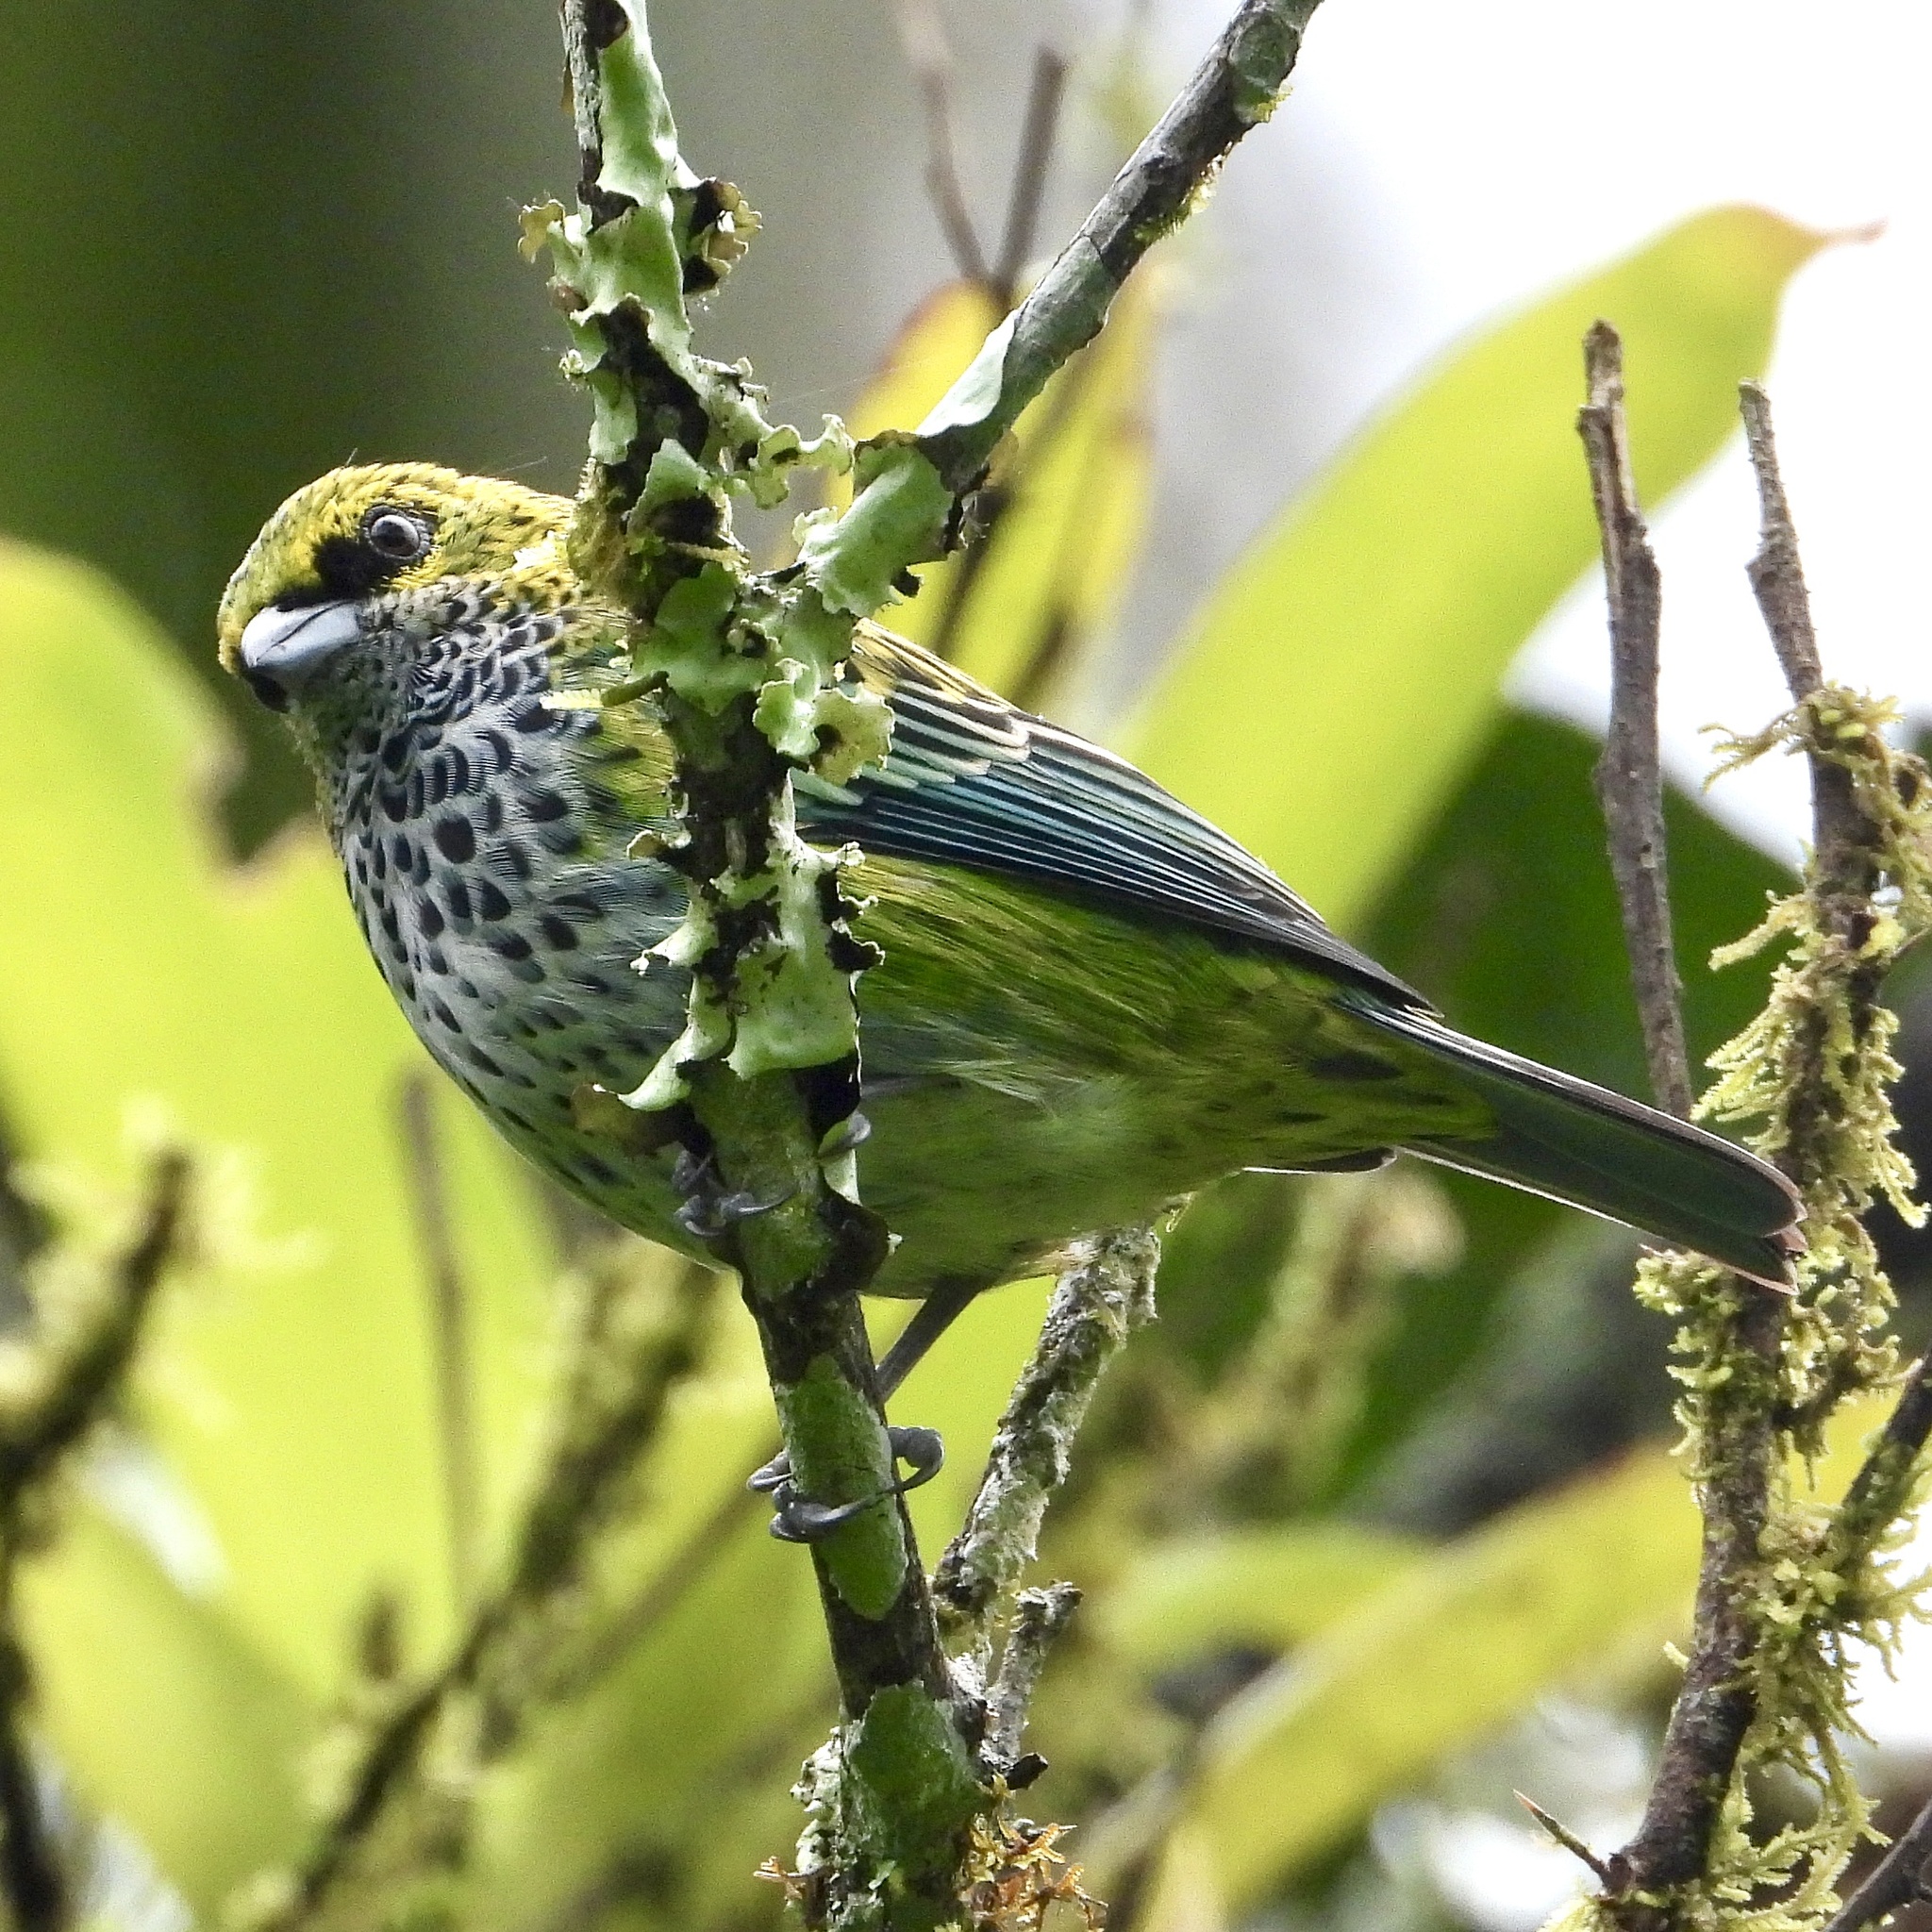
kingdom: Animalia
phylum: Chordata
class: Aves
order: Passeriformes
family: Thraupidae
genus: Ixothraupis
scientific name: Ixothraupis guttata
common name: Speckled tanager
